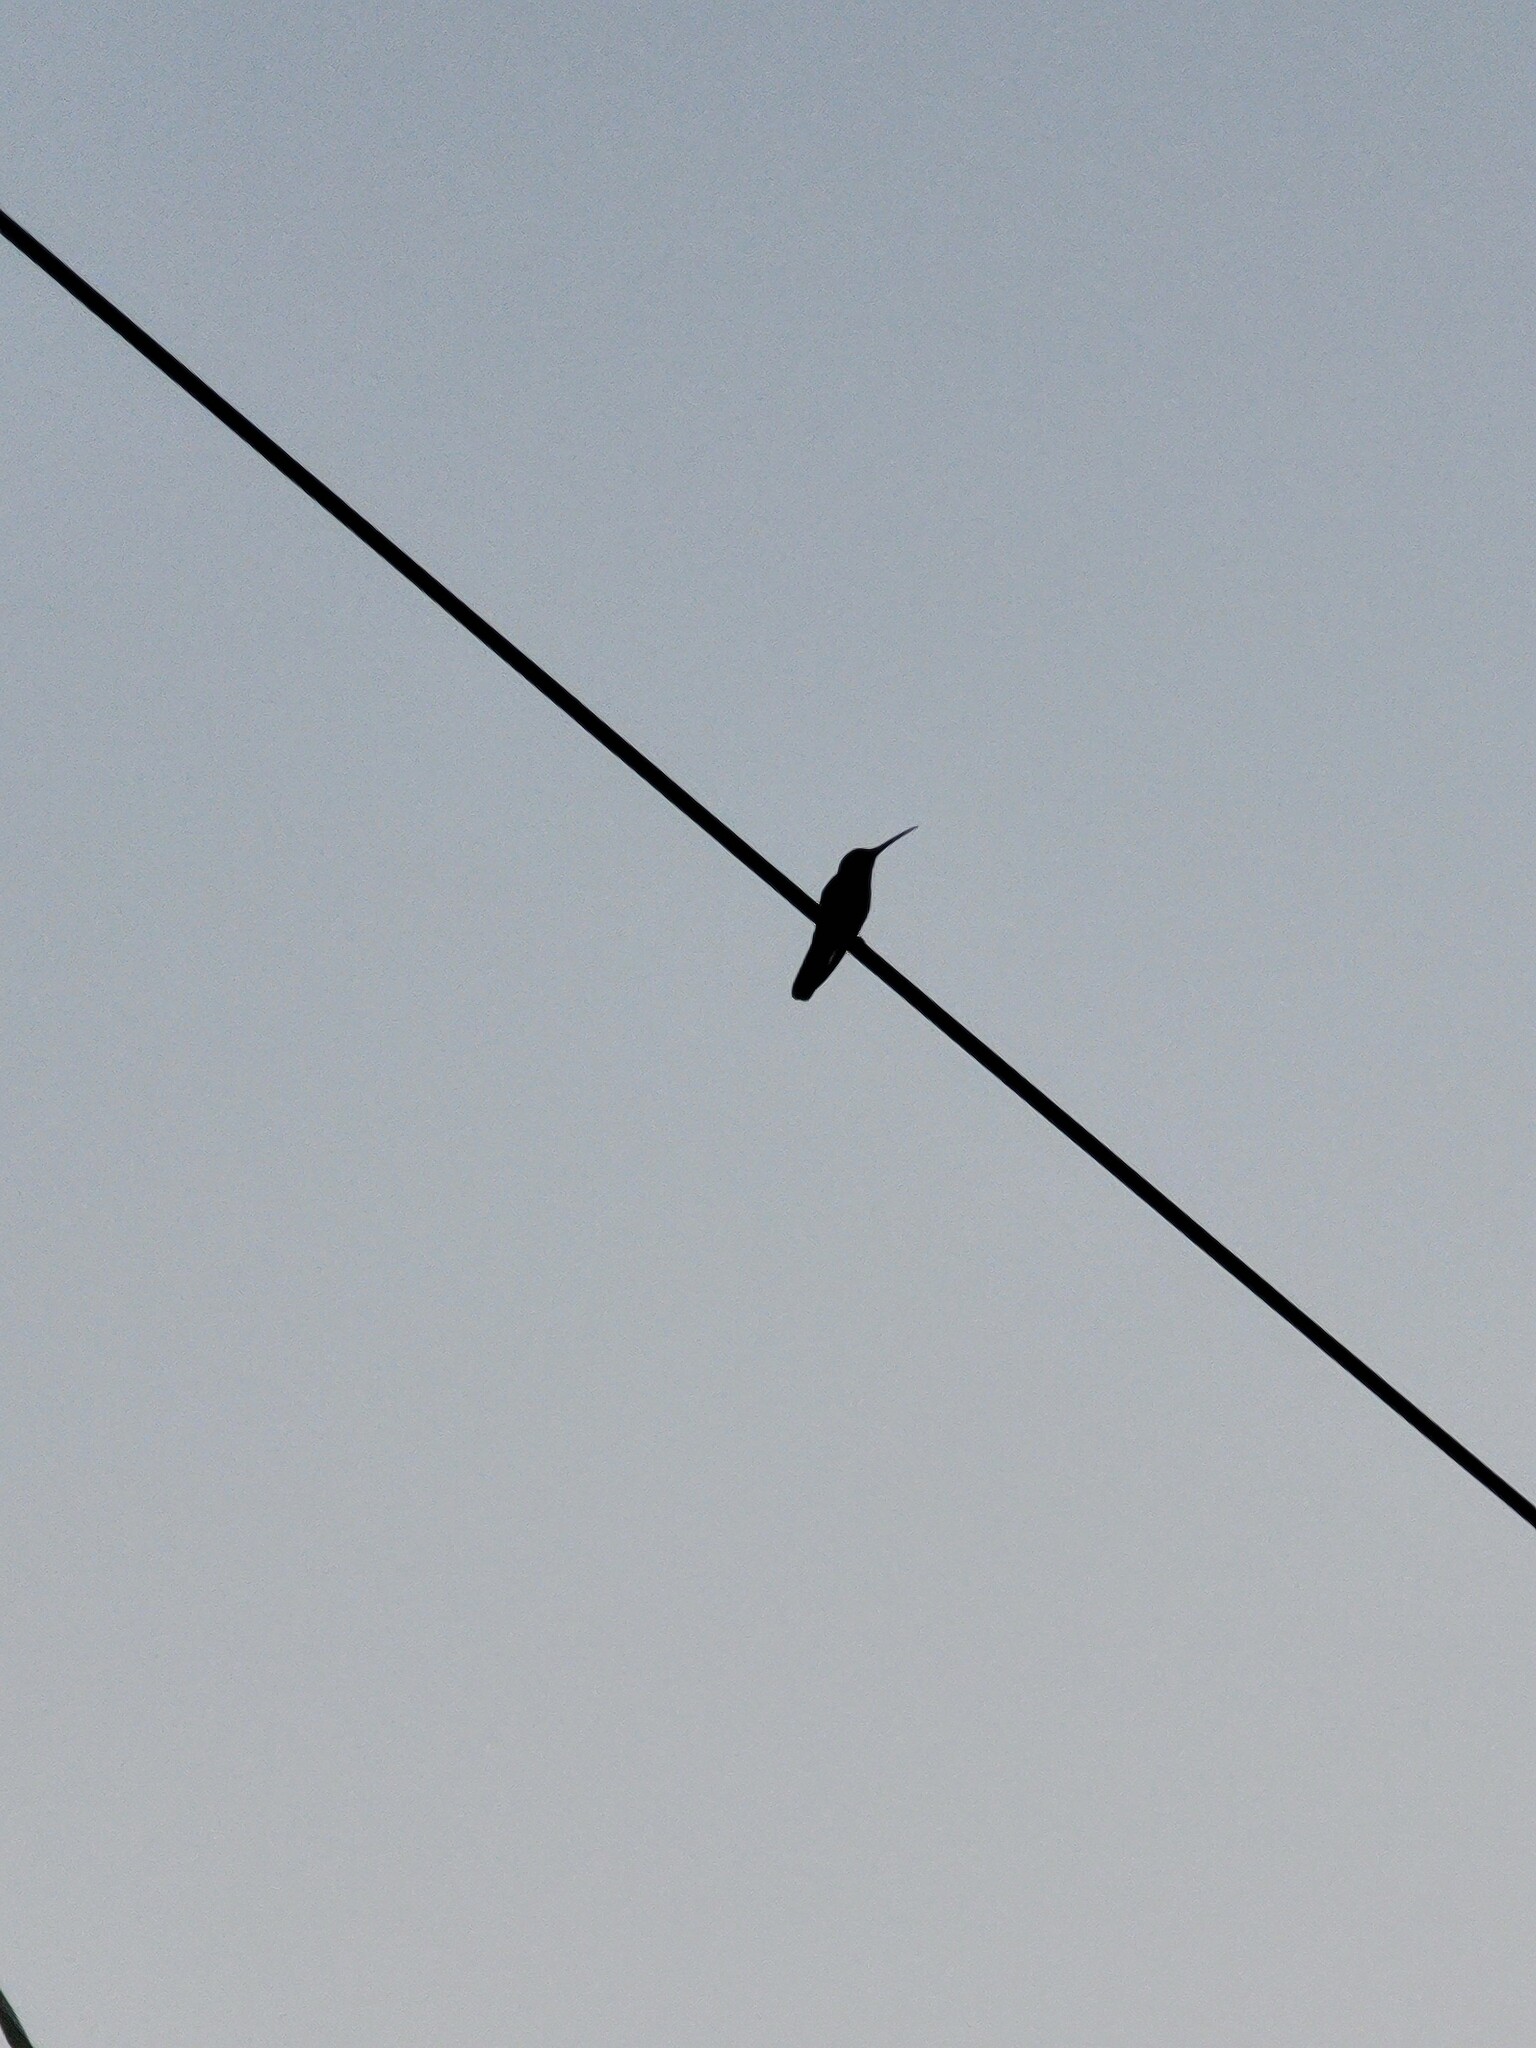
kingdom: Animalia
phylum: Chordata
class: Aves
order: Apodiformes
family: Trochilidae
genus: Cynanthus
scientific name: Cynanthus latirostris
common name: Broad-billed hummingbird
